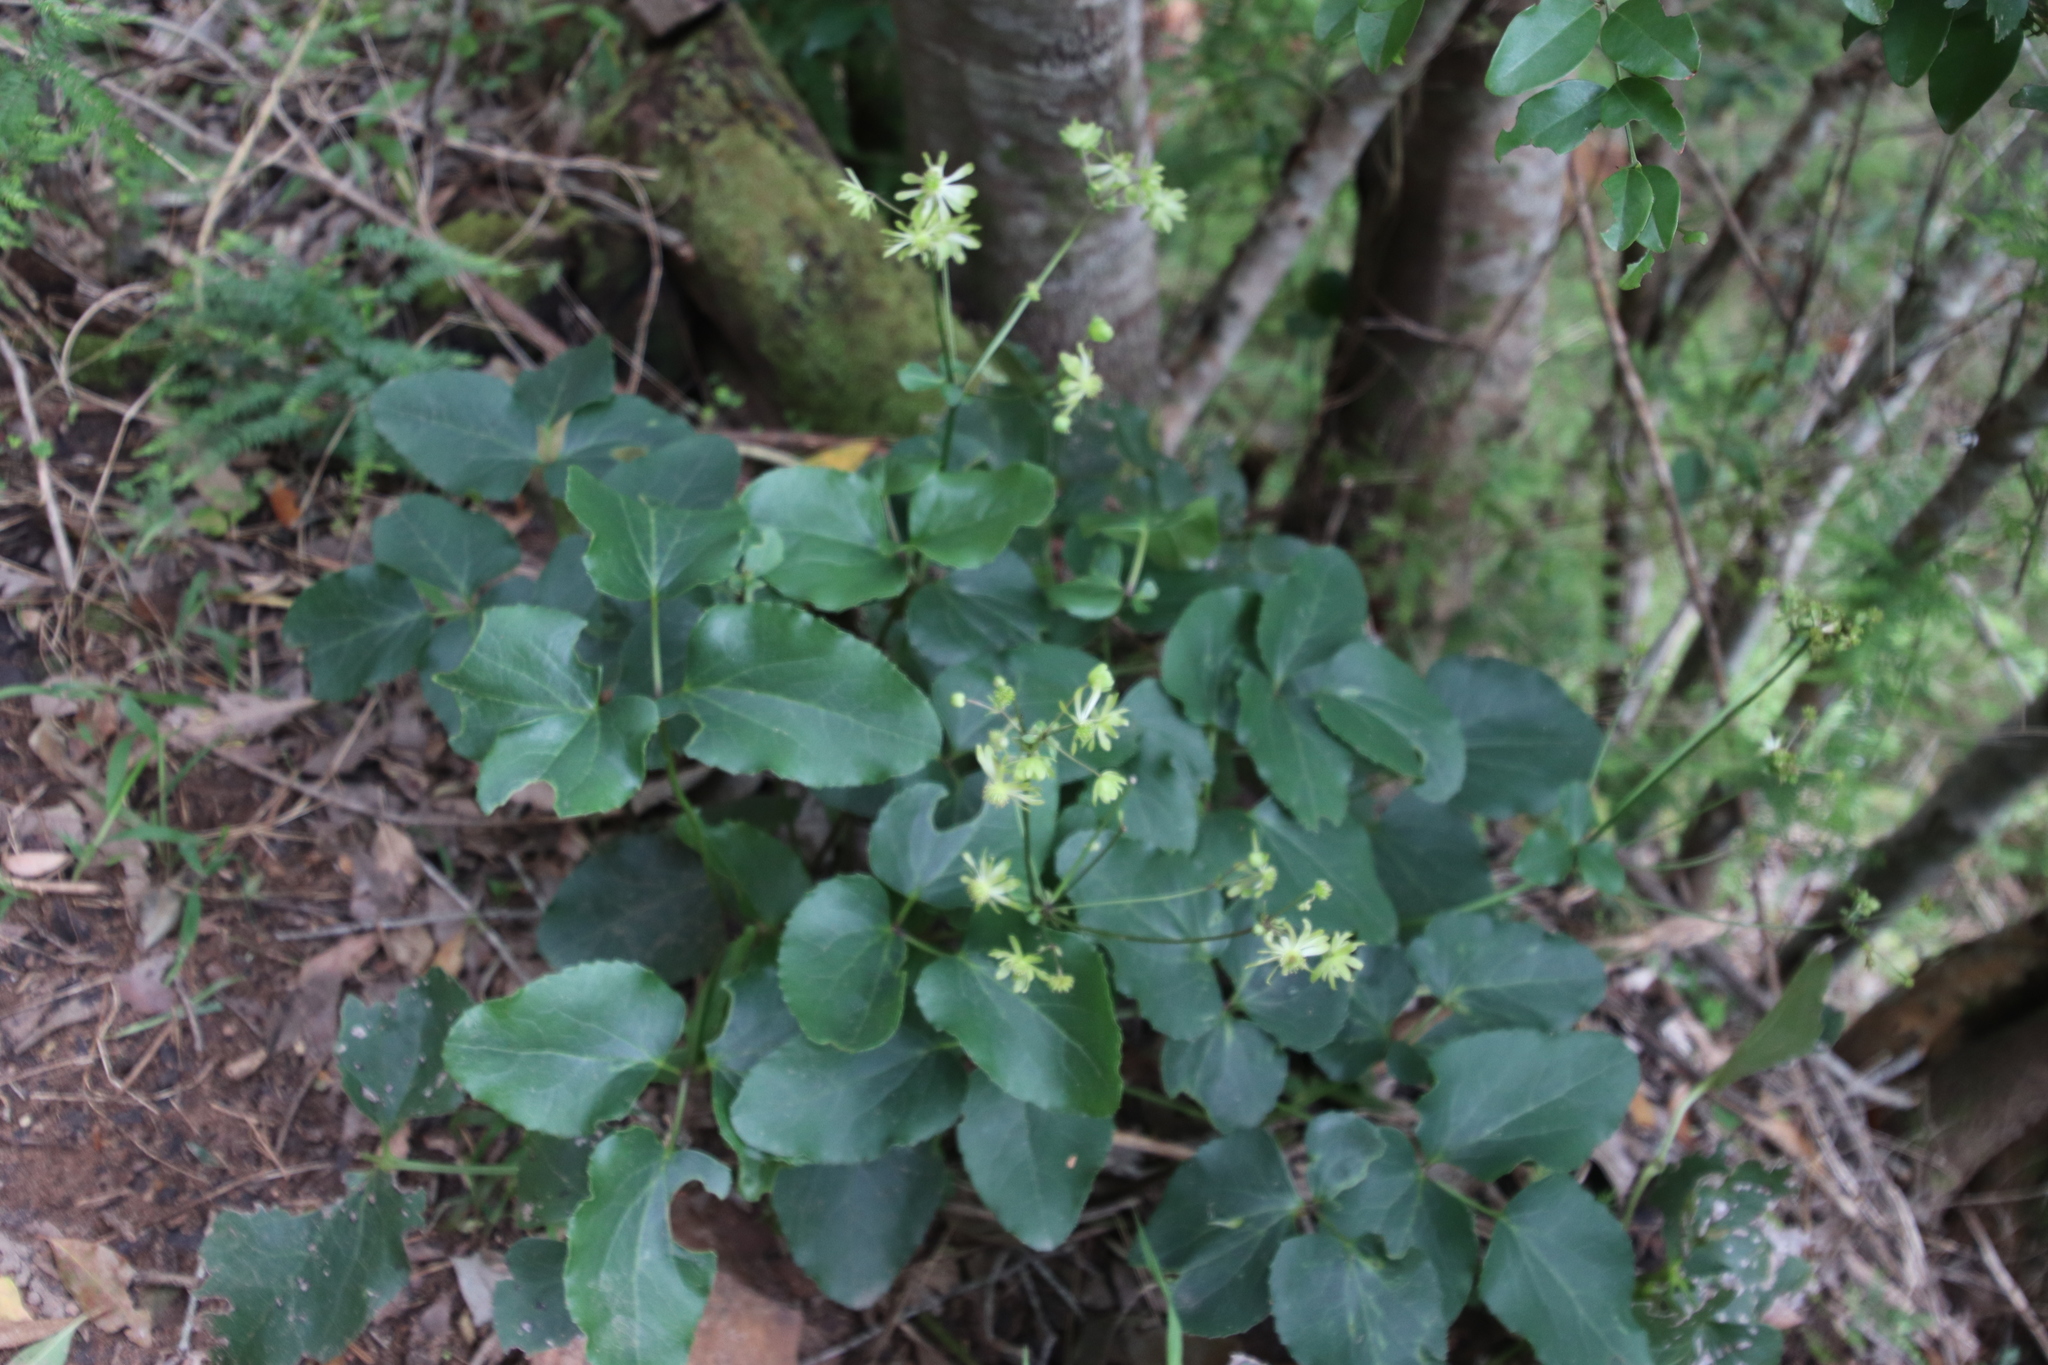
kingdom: Plantae
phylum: Tracheophyta
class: Magnoliopsida
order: Ranunculales
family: Ranunculaceae
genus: Knowltonia
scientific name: Knowltonia vesicatoria
